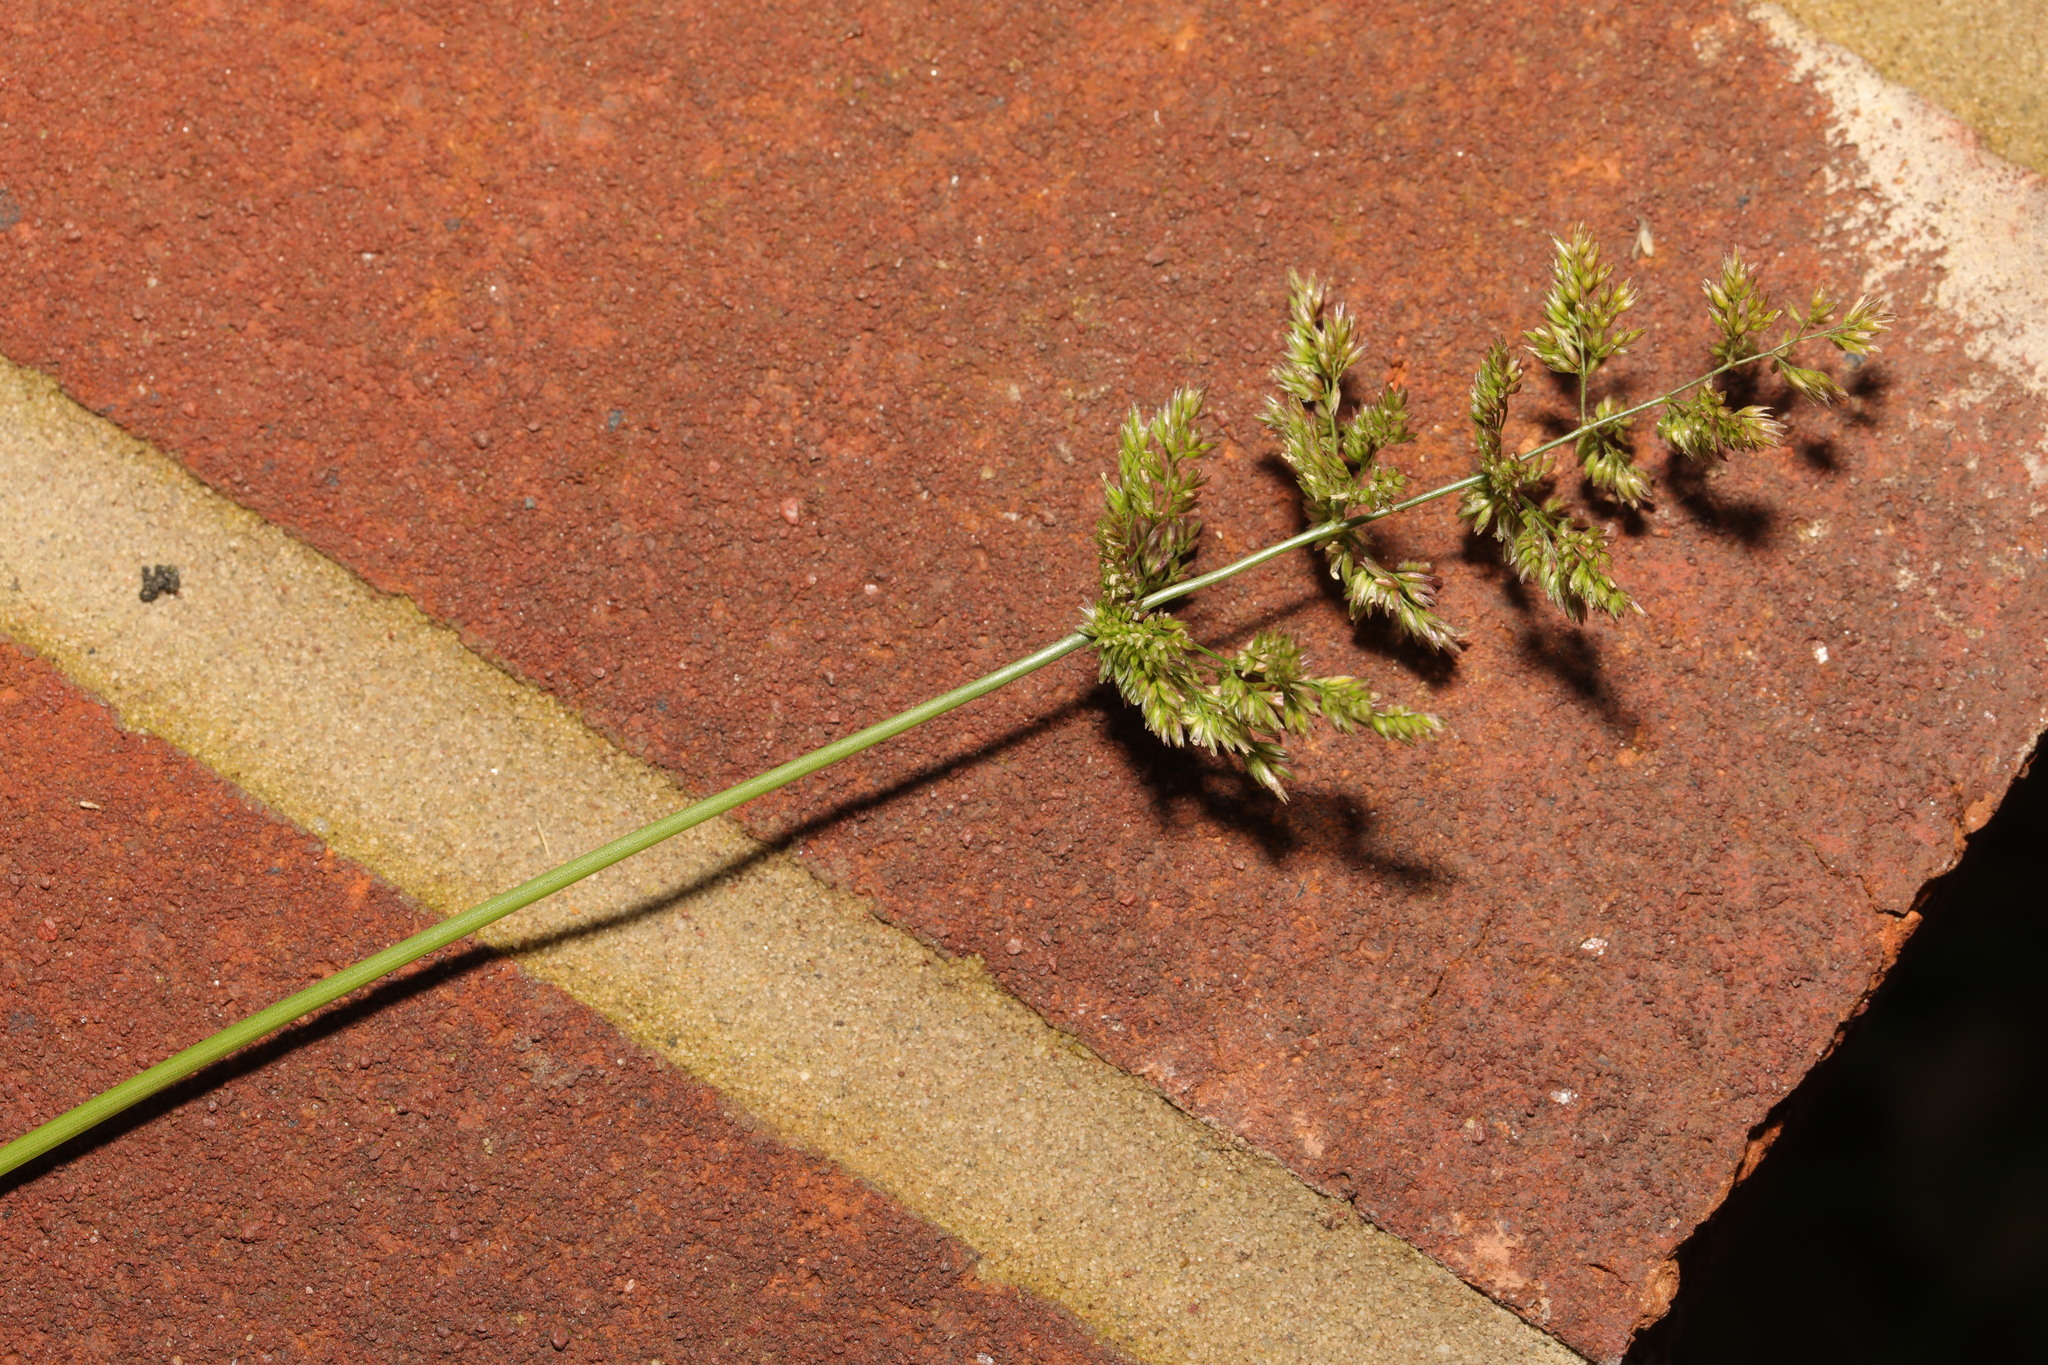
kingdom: Plantae
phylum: Tracheophyta
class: Liliopsida
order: Poales
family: Poaceae
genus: Polypogon
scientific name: Polypogon viridis
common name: Water bent
